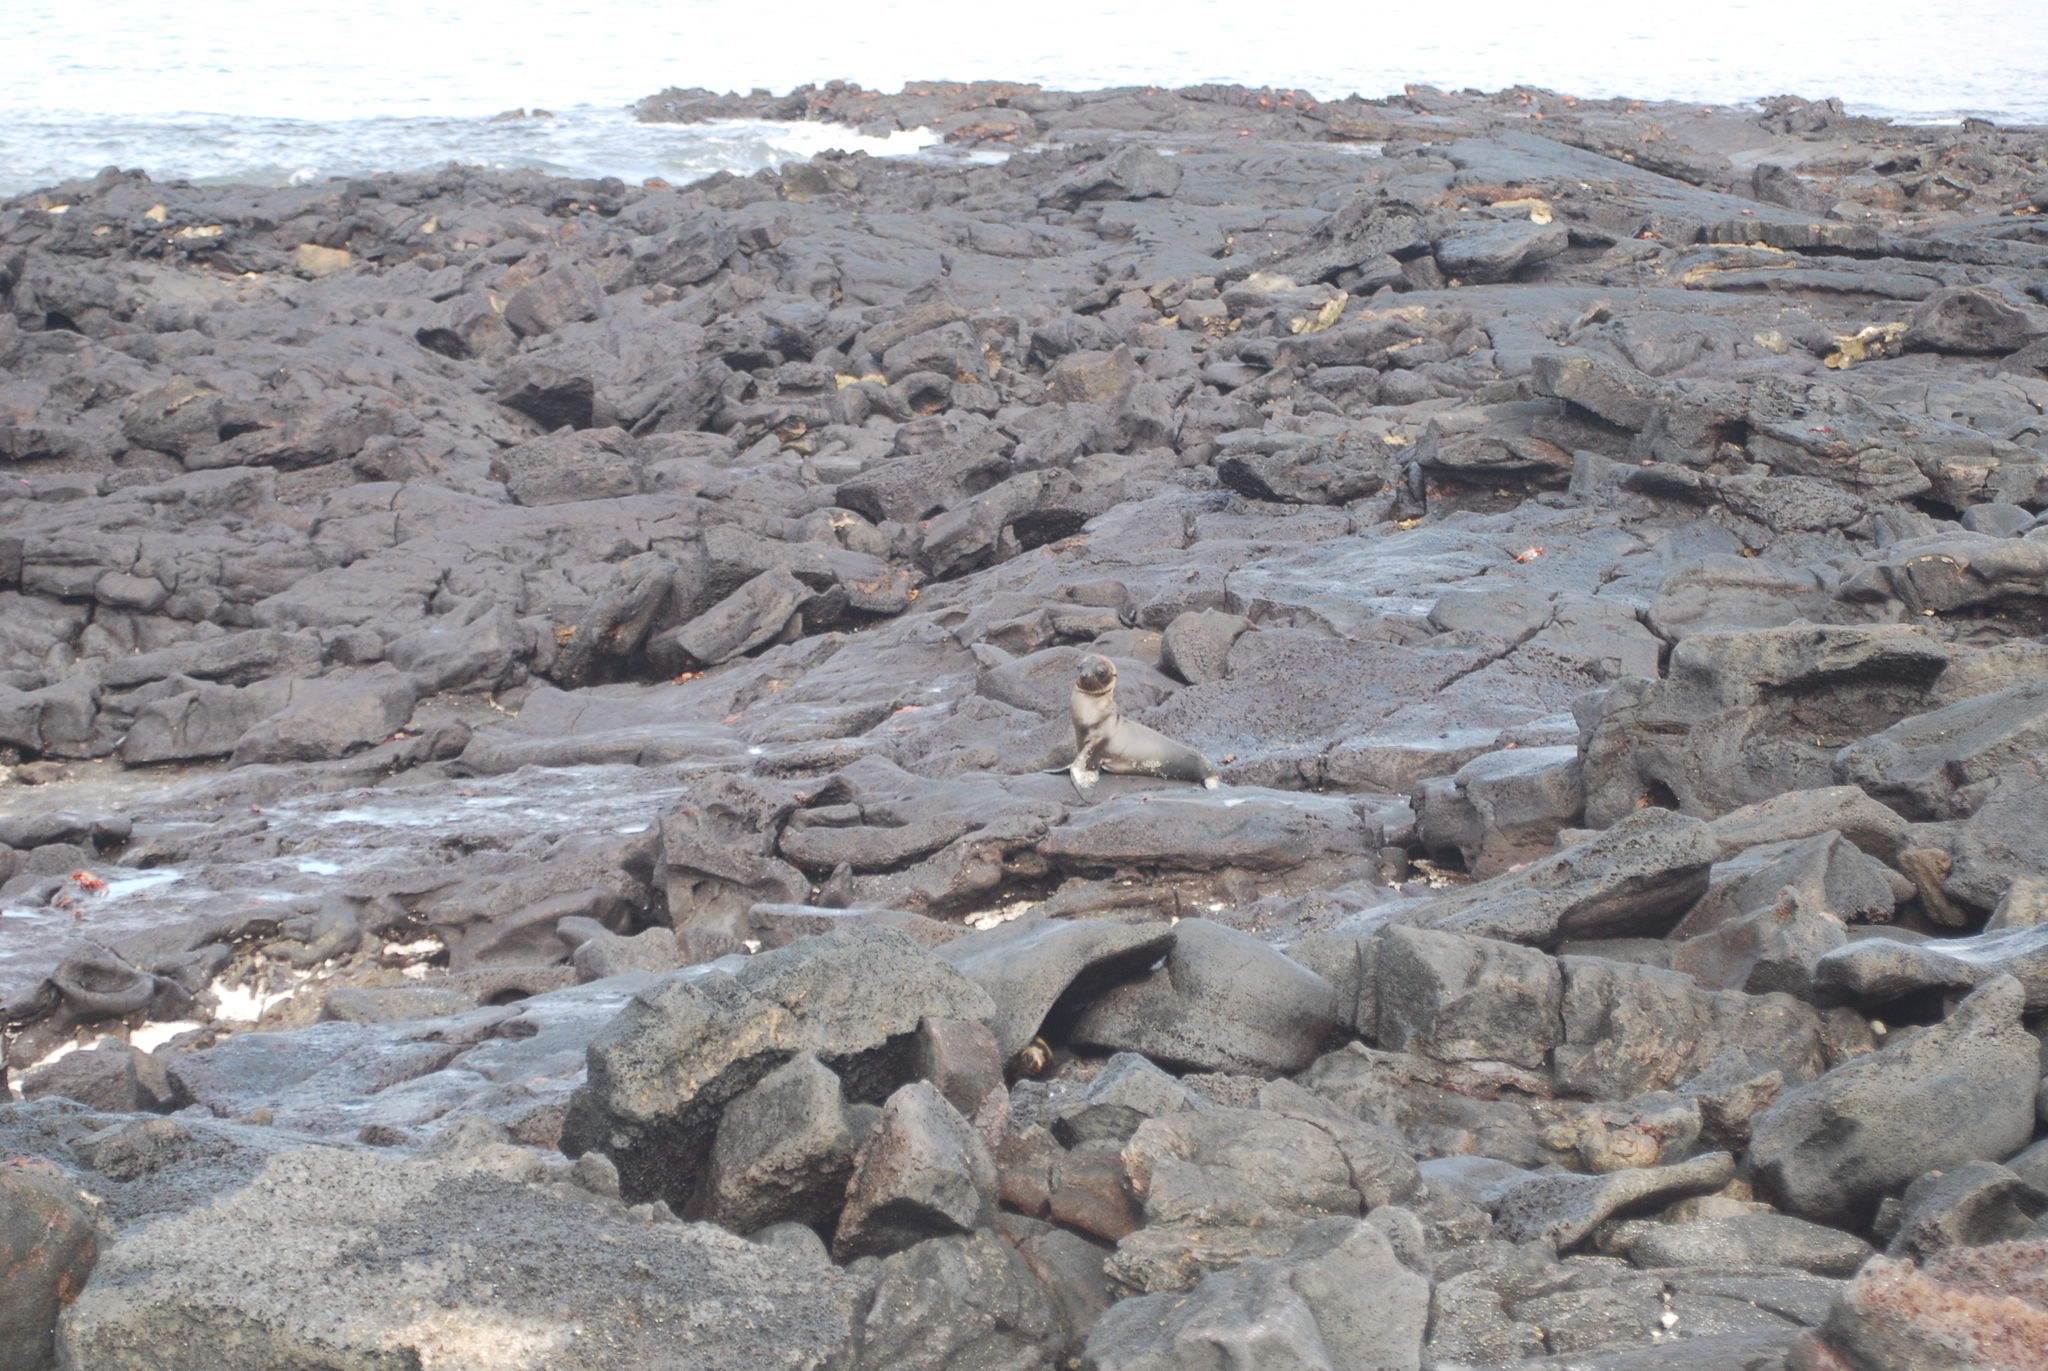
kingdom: Animalia
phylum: Chordata
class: Mammalia
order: Carnivora
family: Otariidae
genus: Zalophus
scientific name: Zalophus wollebaeki
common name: Galapagos sea lion
